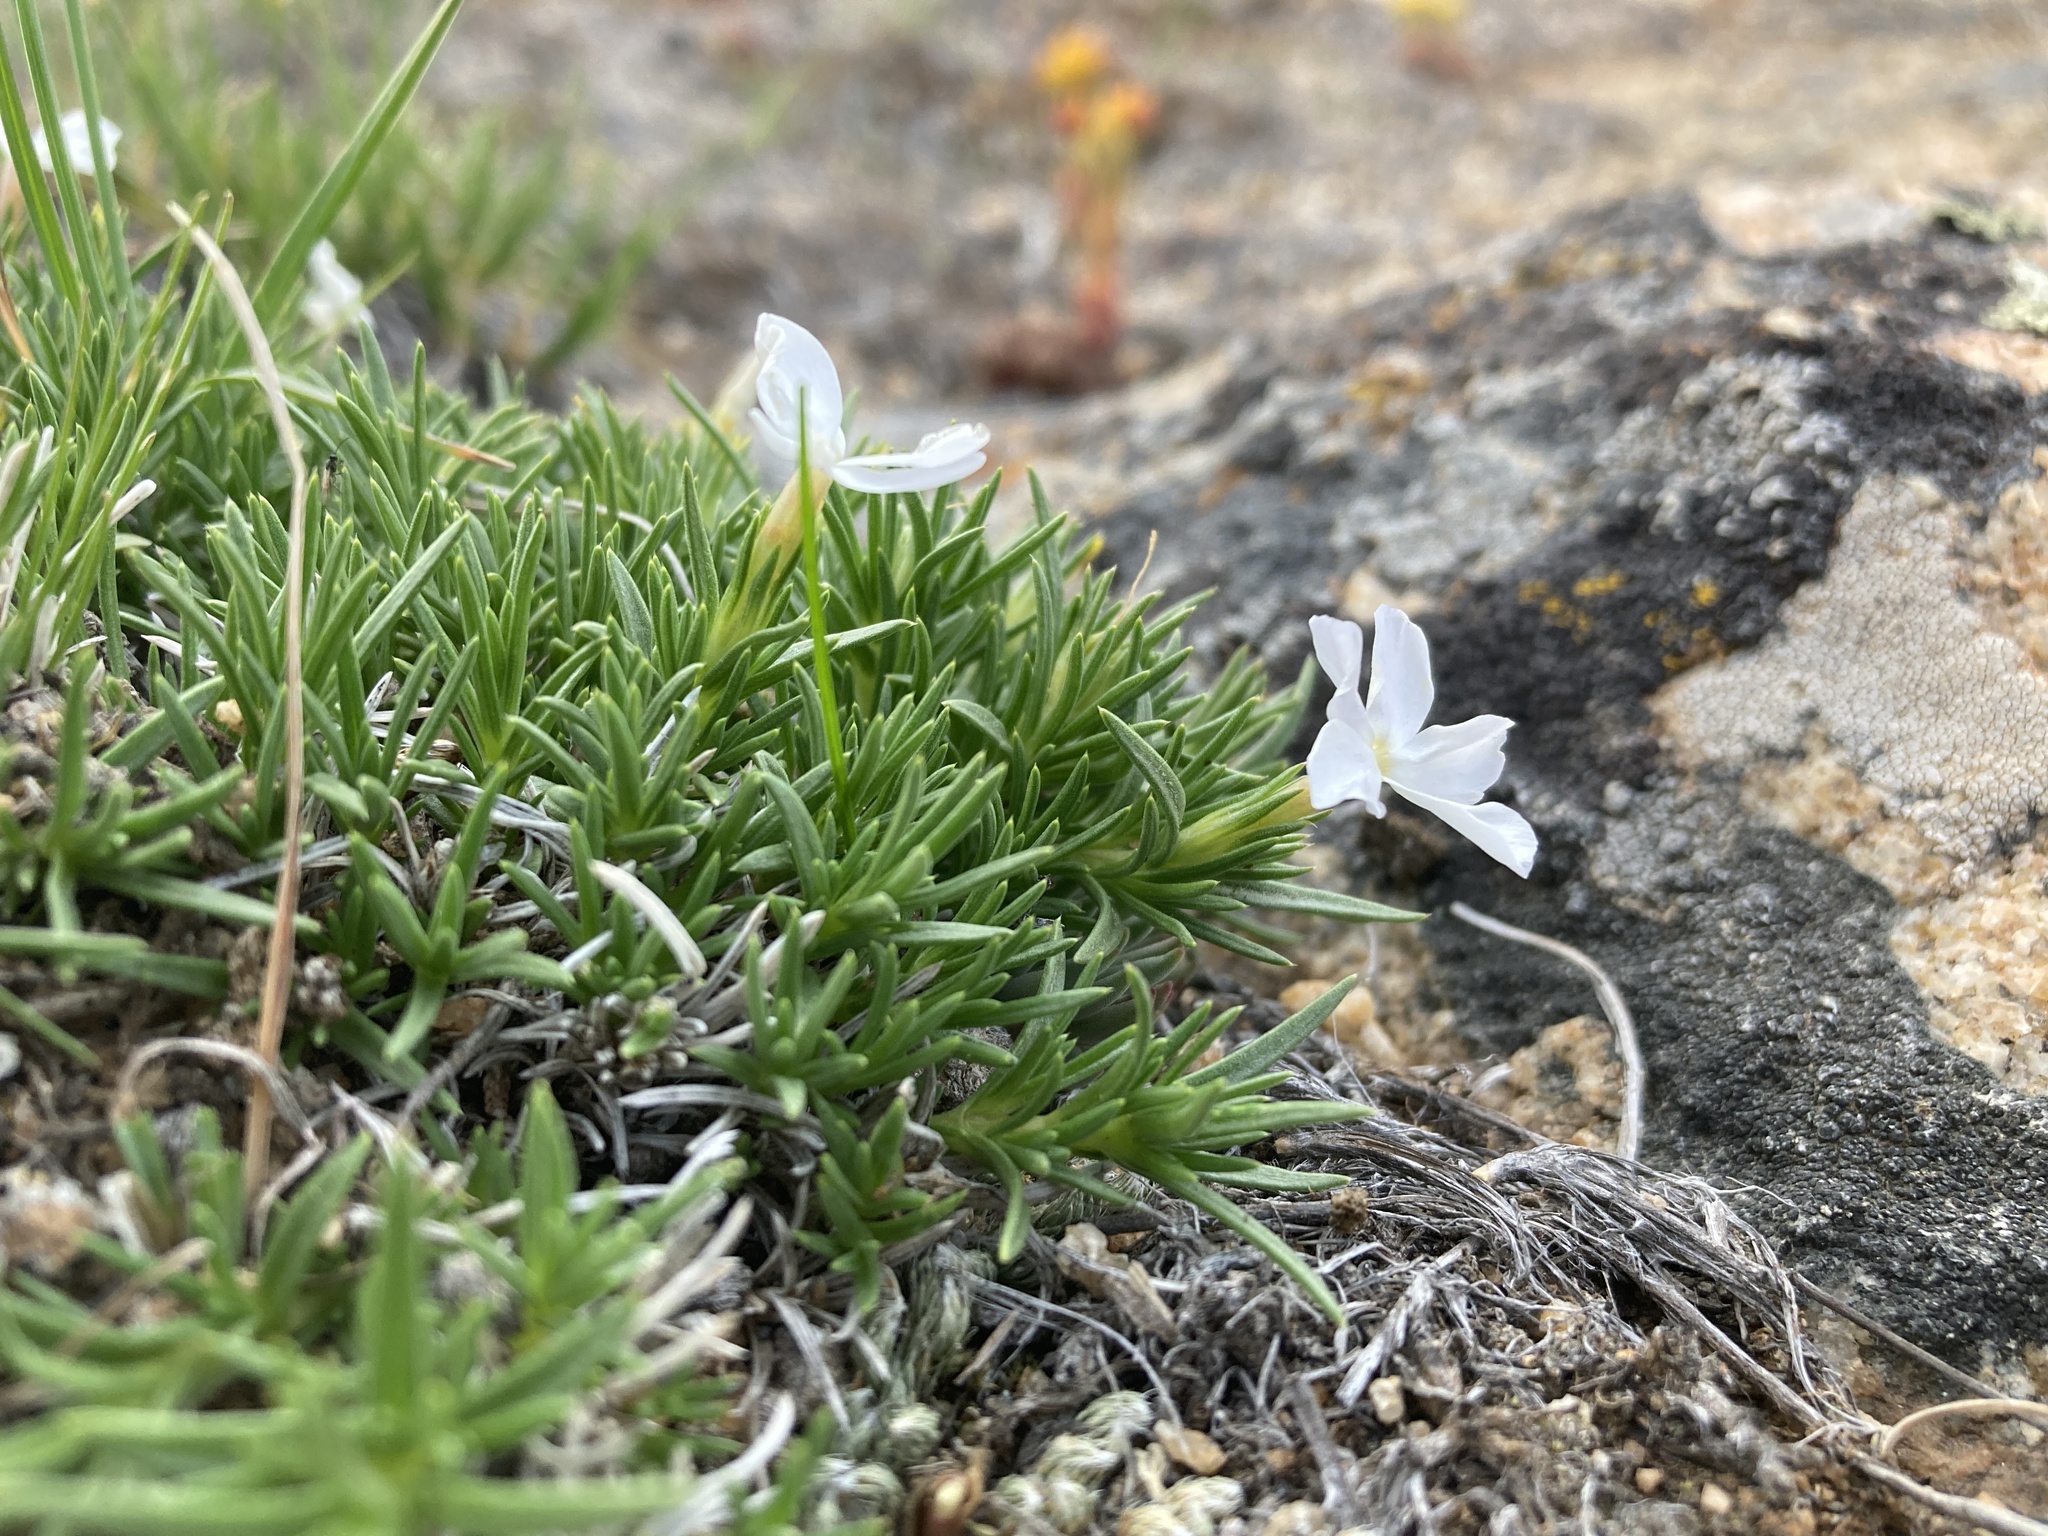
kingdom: Plantae
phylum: Tracheophyta
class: Magnoliopsida
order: Ericales
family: Polemoniaceae
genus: Phlox
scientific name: Phlox multiflora
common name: Rocky mountain phlox
